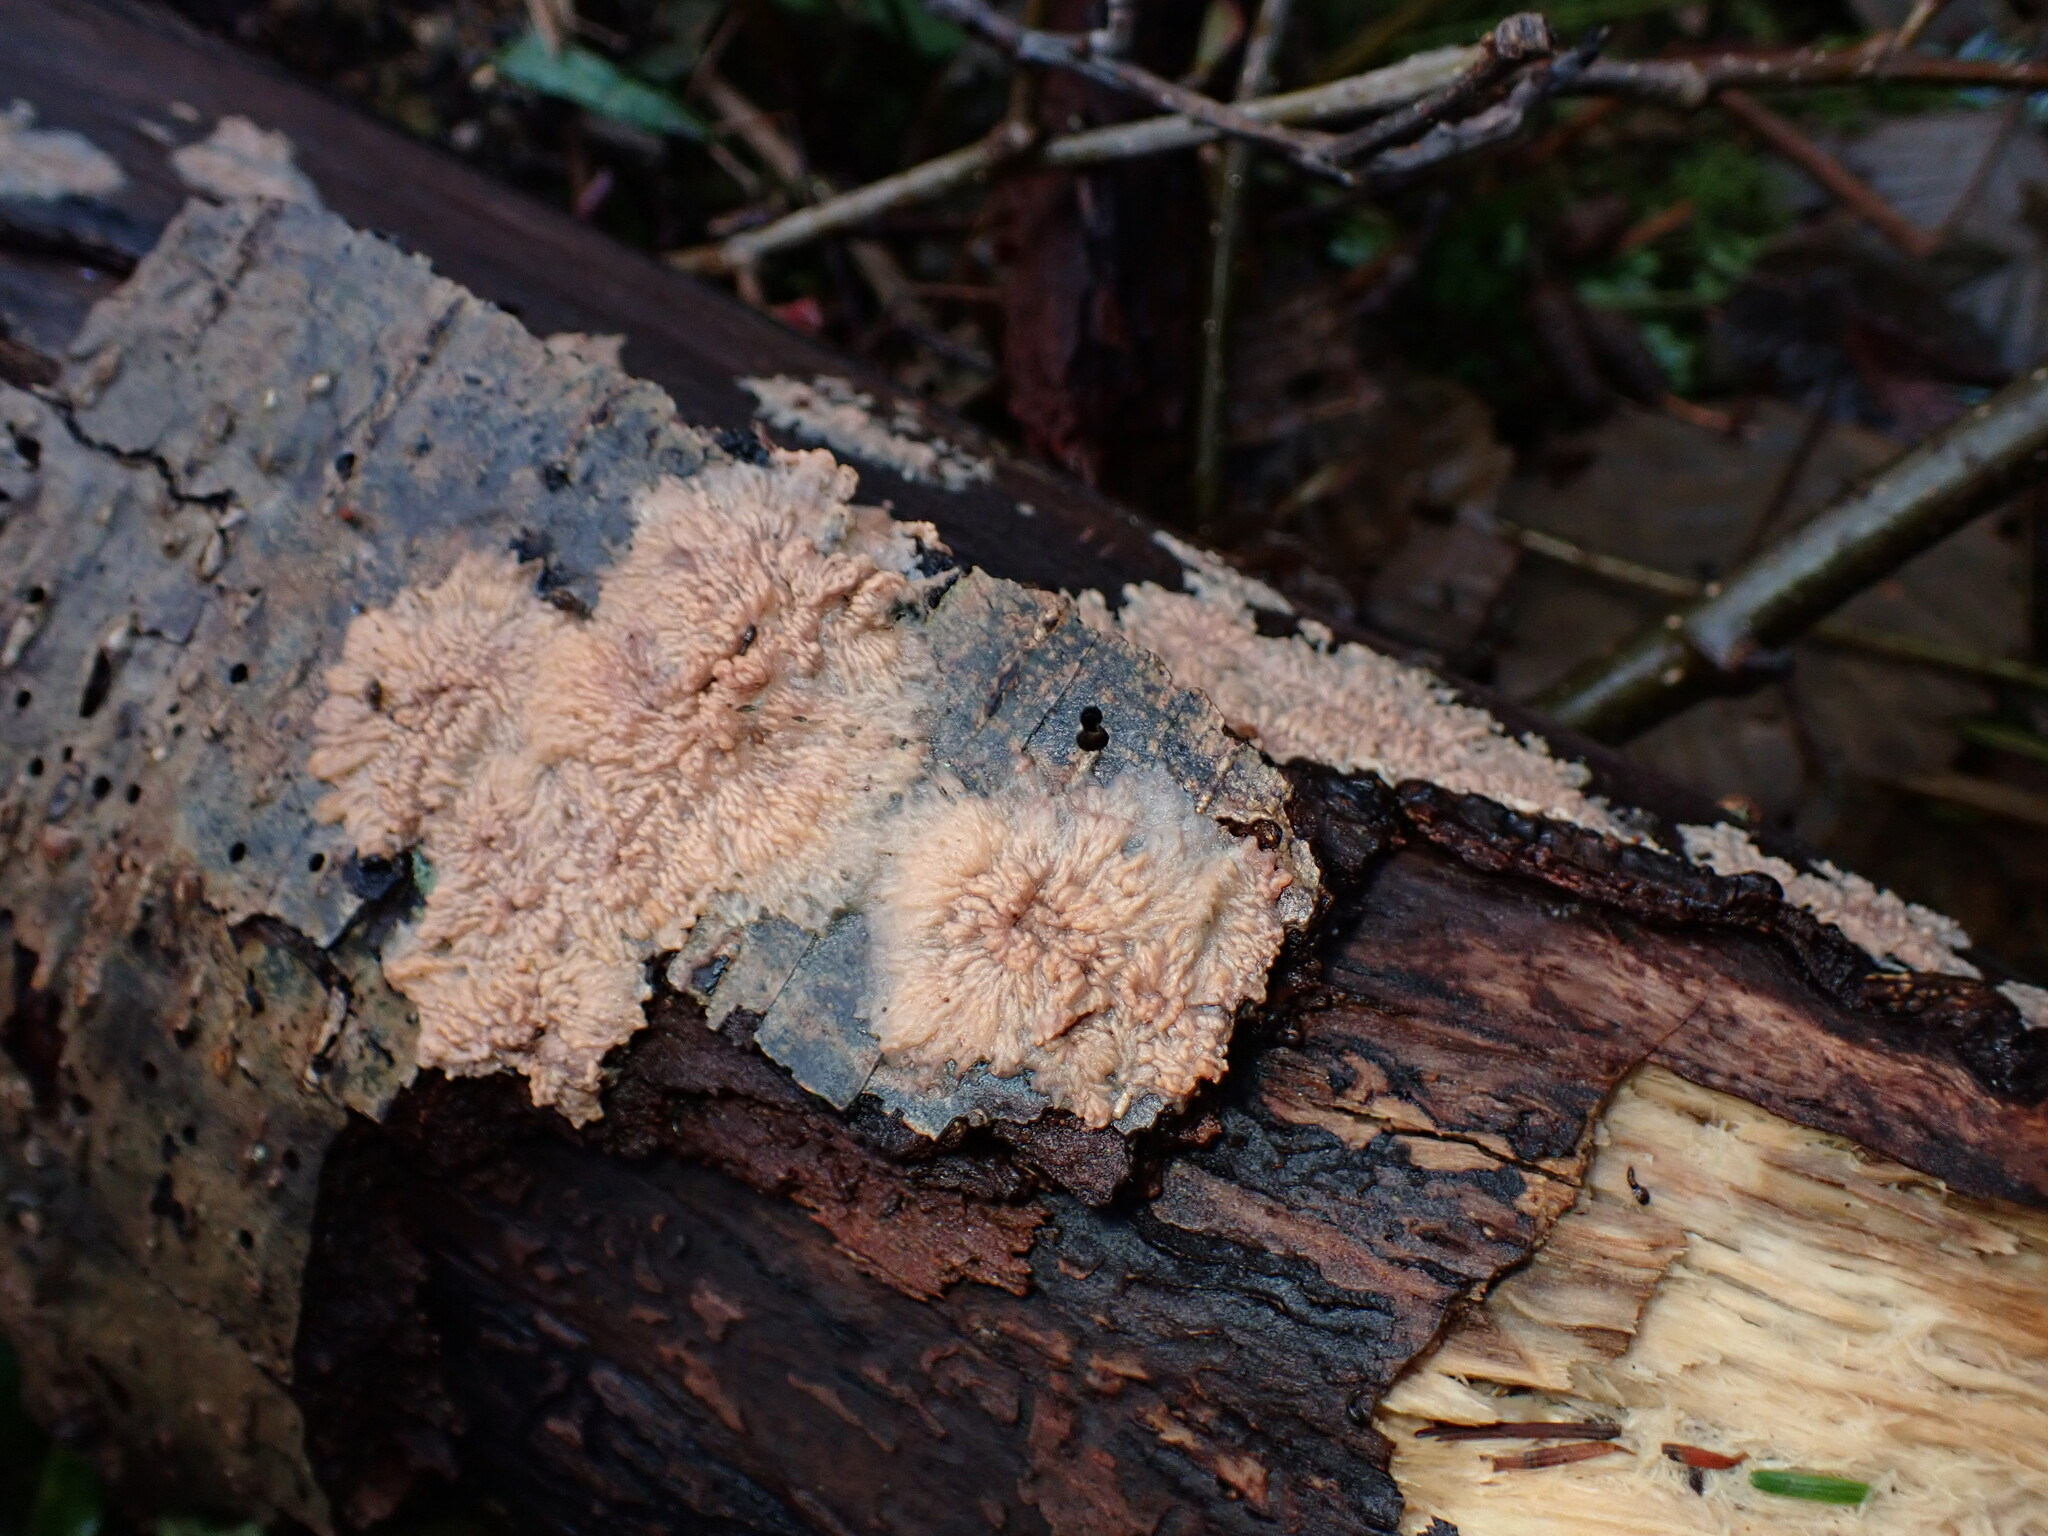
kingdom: Fungi
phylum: Basidiomycota
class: Agaricomycetes
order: Polyporales
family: Meruliaceae
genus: Phlebia
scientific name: Phlebia radiata
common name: Wrinkled crust
